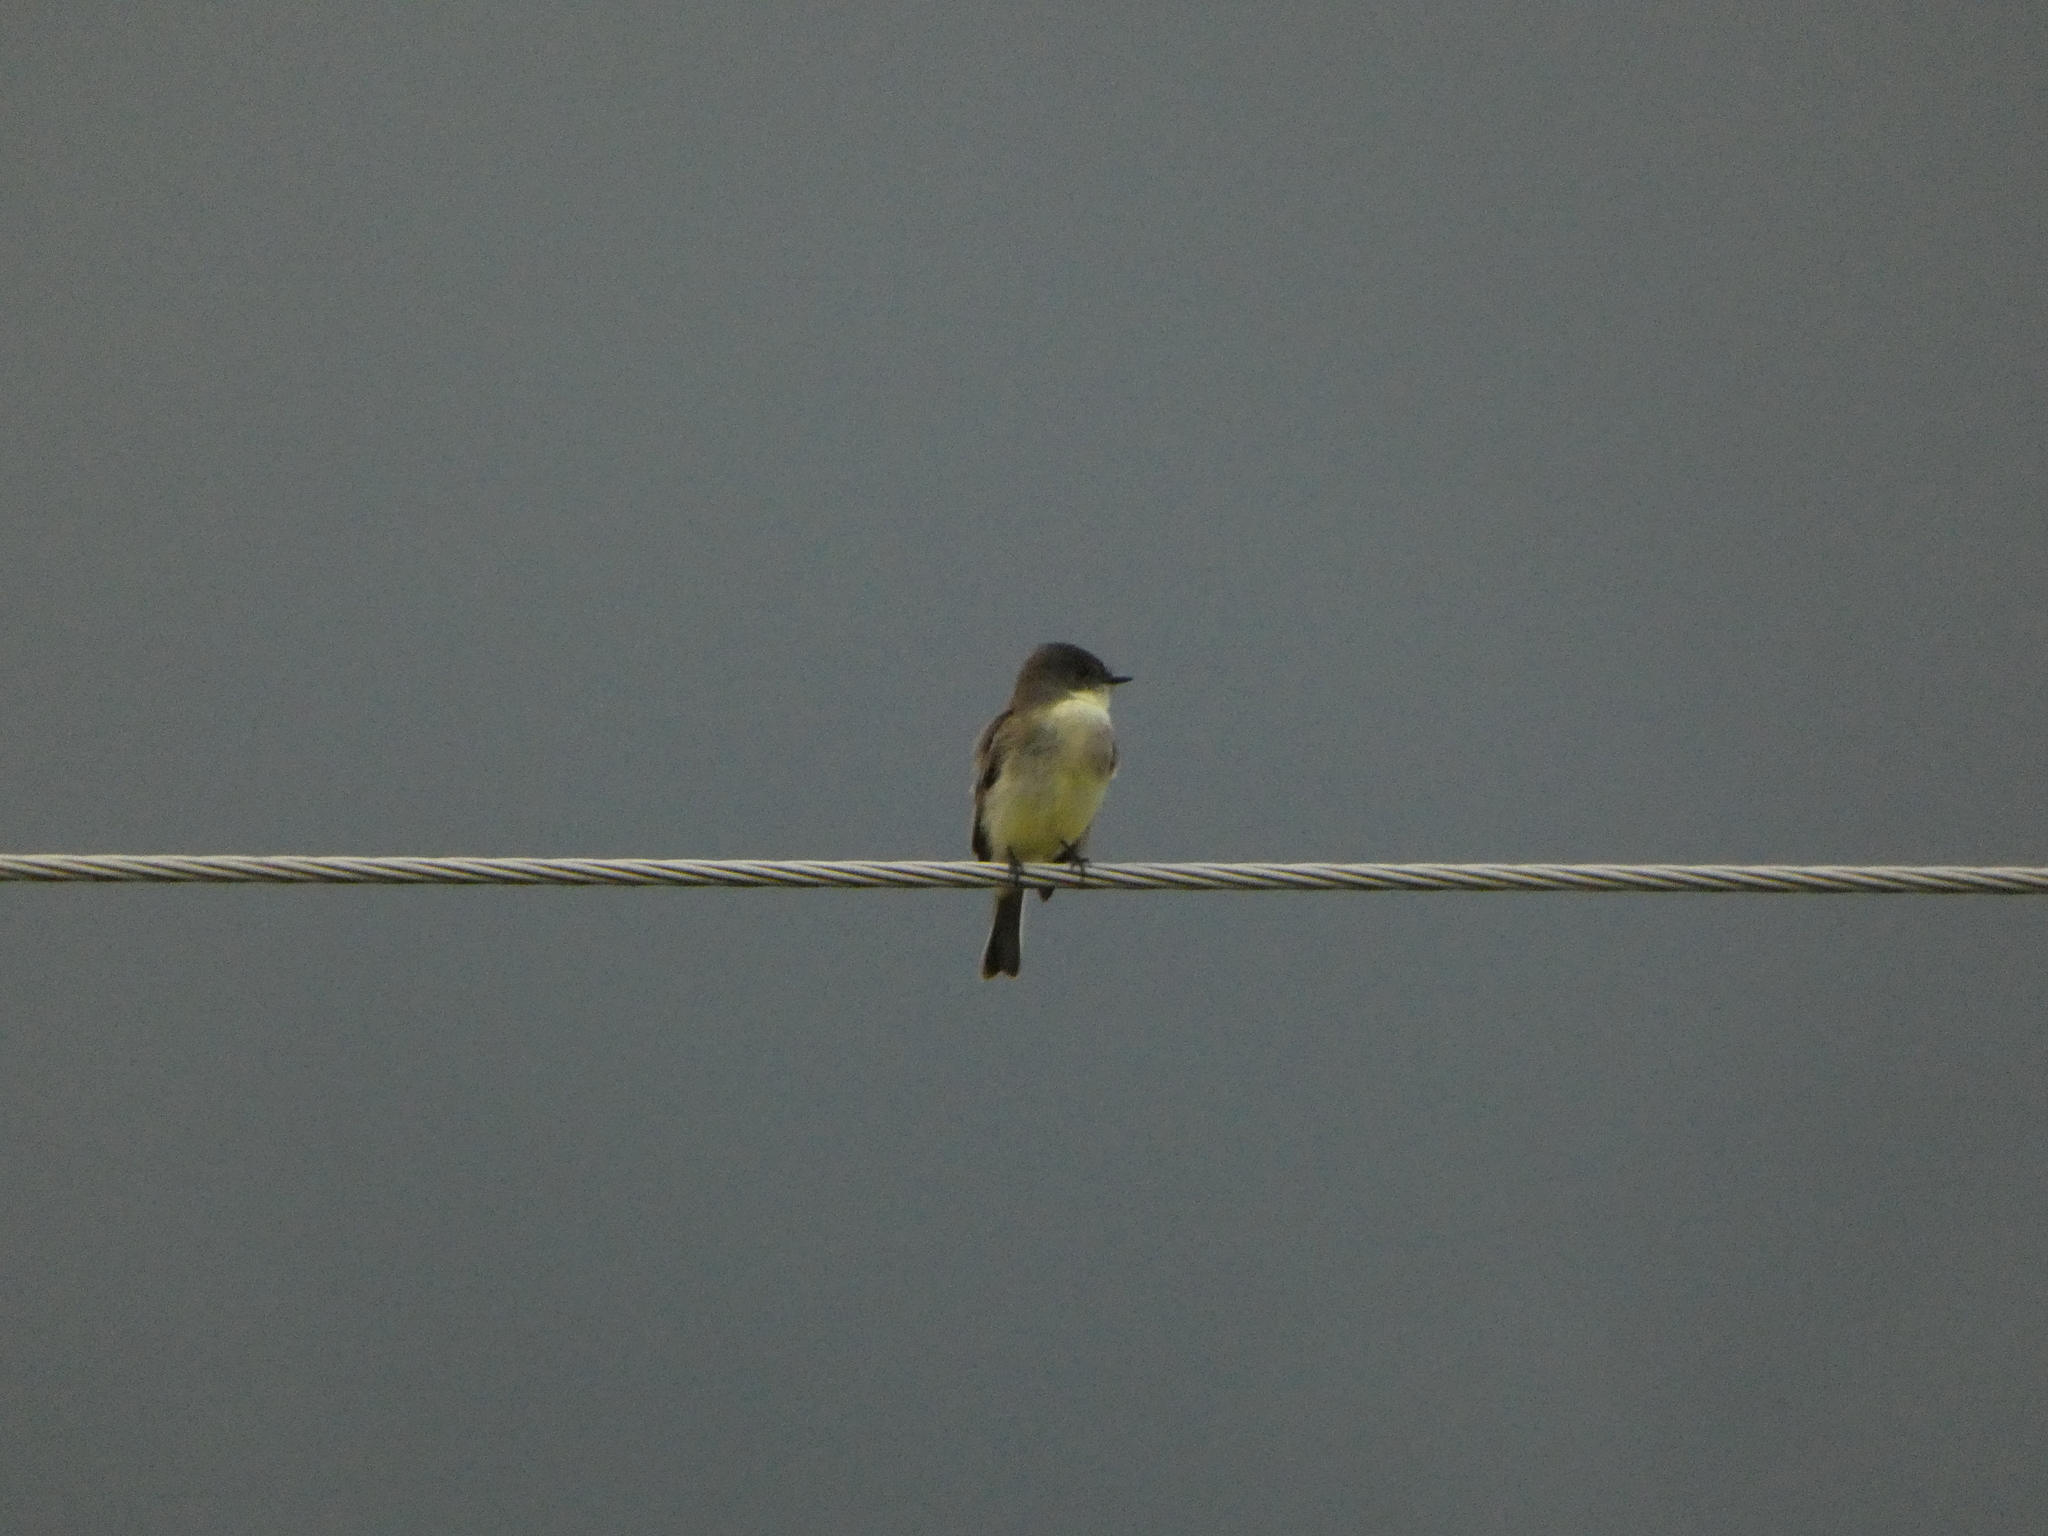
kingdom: Animalia
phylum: Chordata
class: Aves
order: Passeriformes
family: Tyrannidae
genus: Sayornis
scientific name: Sayornis phoebe
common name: Eastern phoebe
